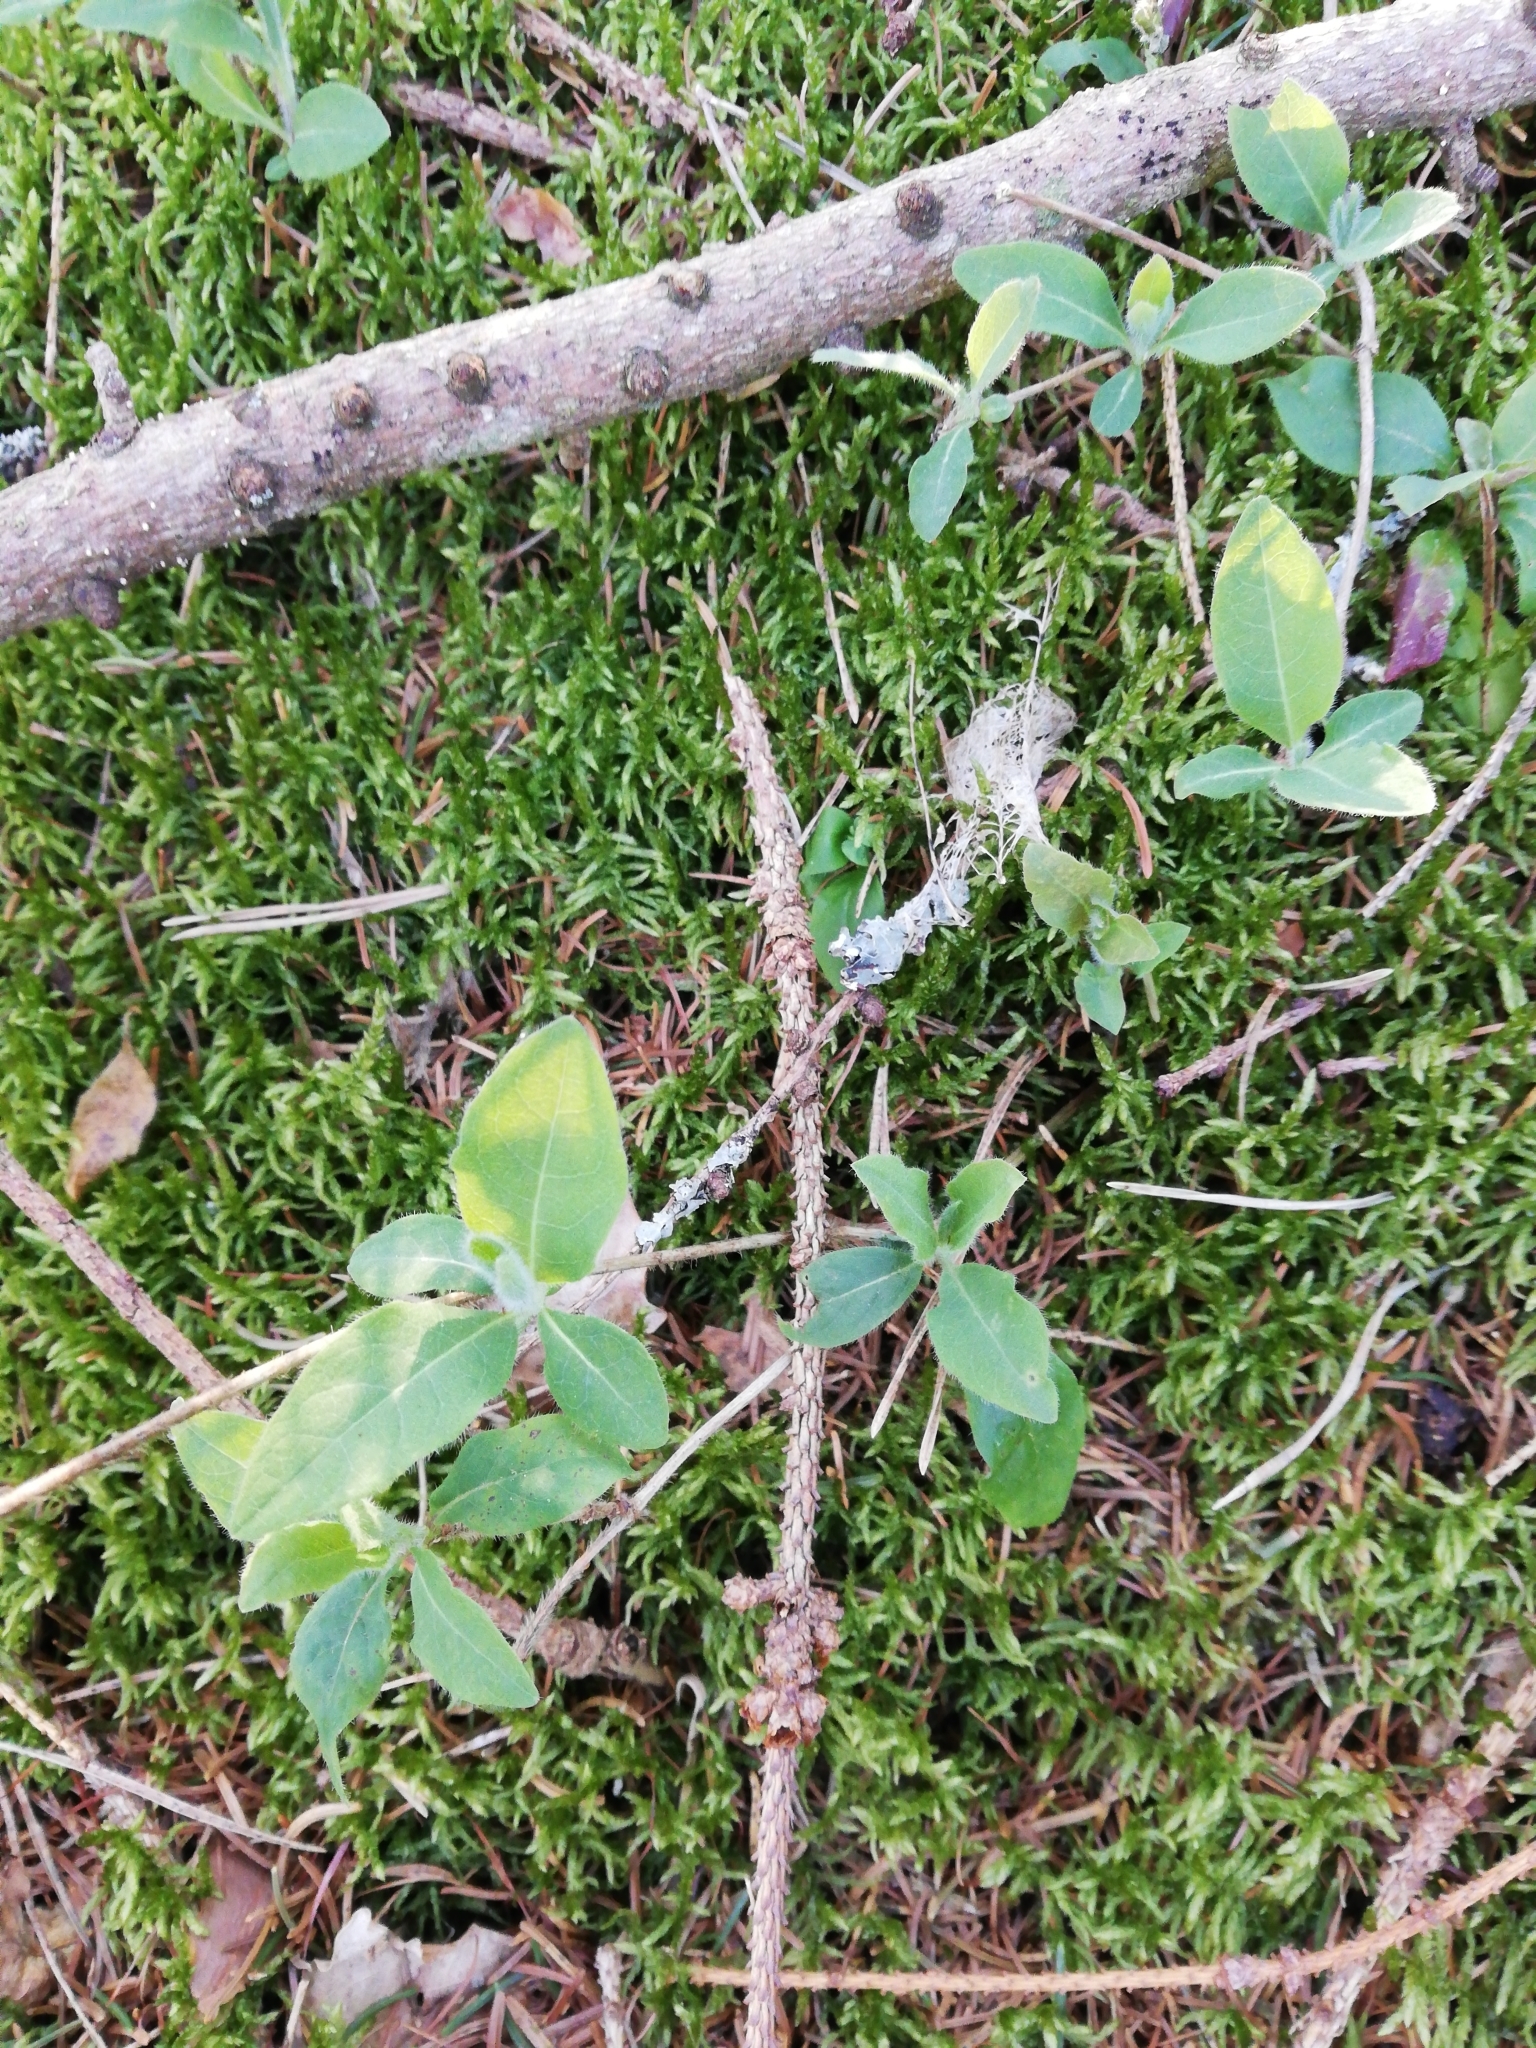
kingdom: Plantae
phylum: Tracheophyta
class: Magnoliopsida
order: Dipsacales
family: Caprifoliaceae
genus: Lonicera
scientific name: Lonicera periclymenum
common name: European honeysuckle
